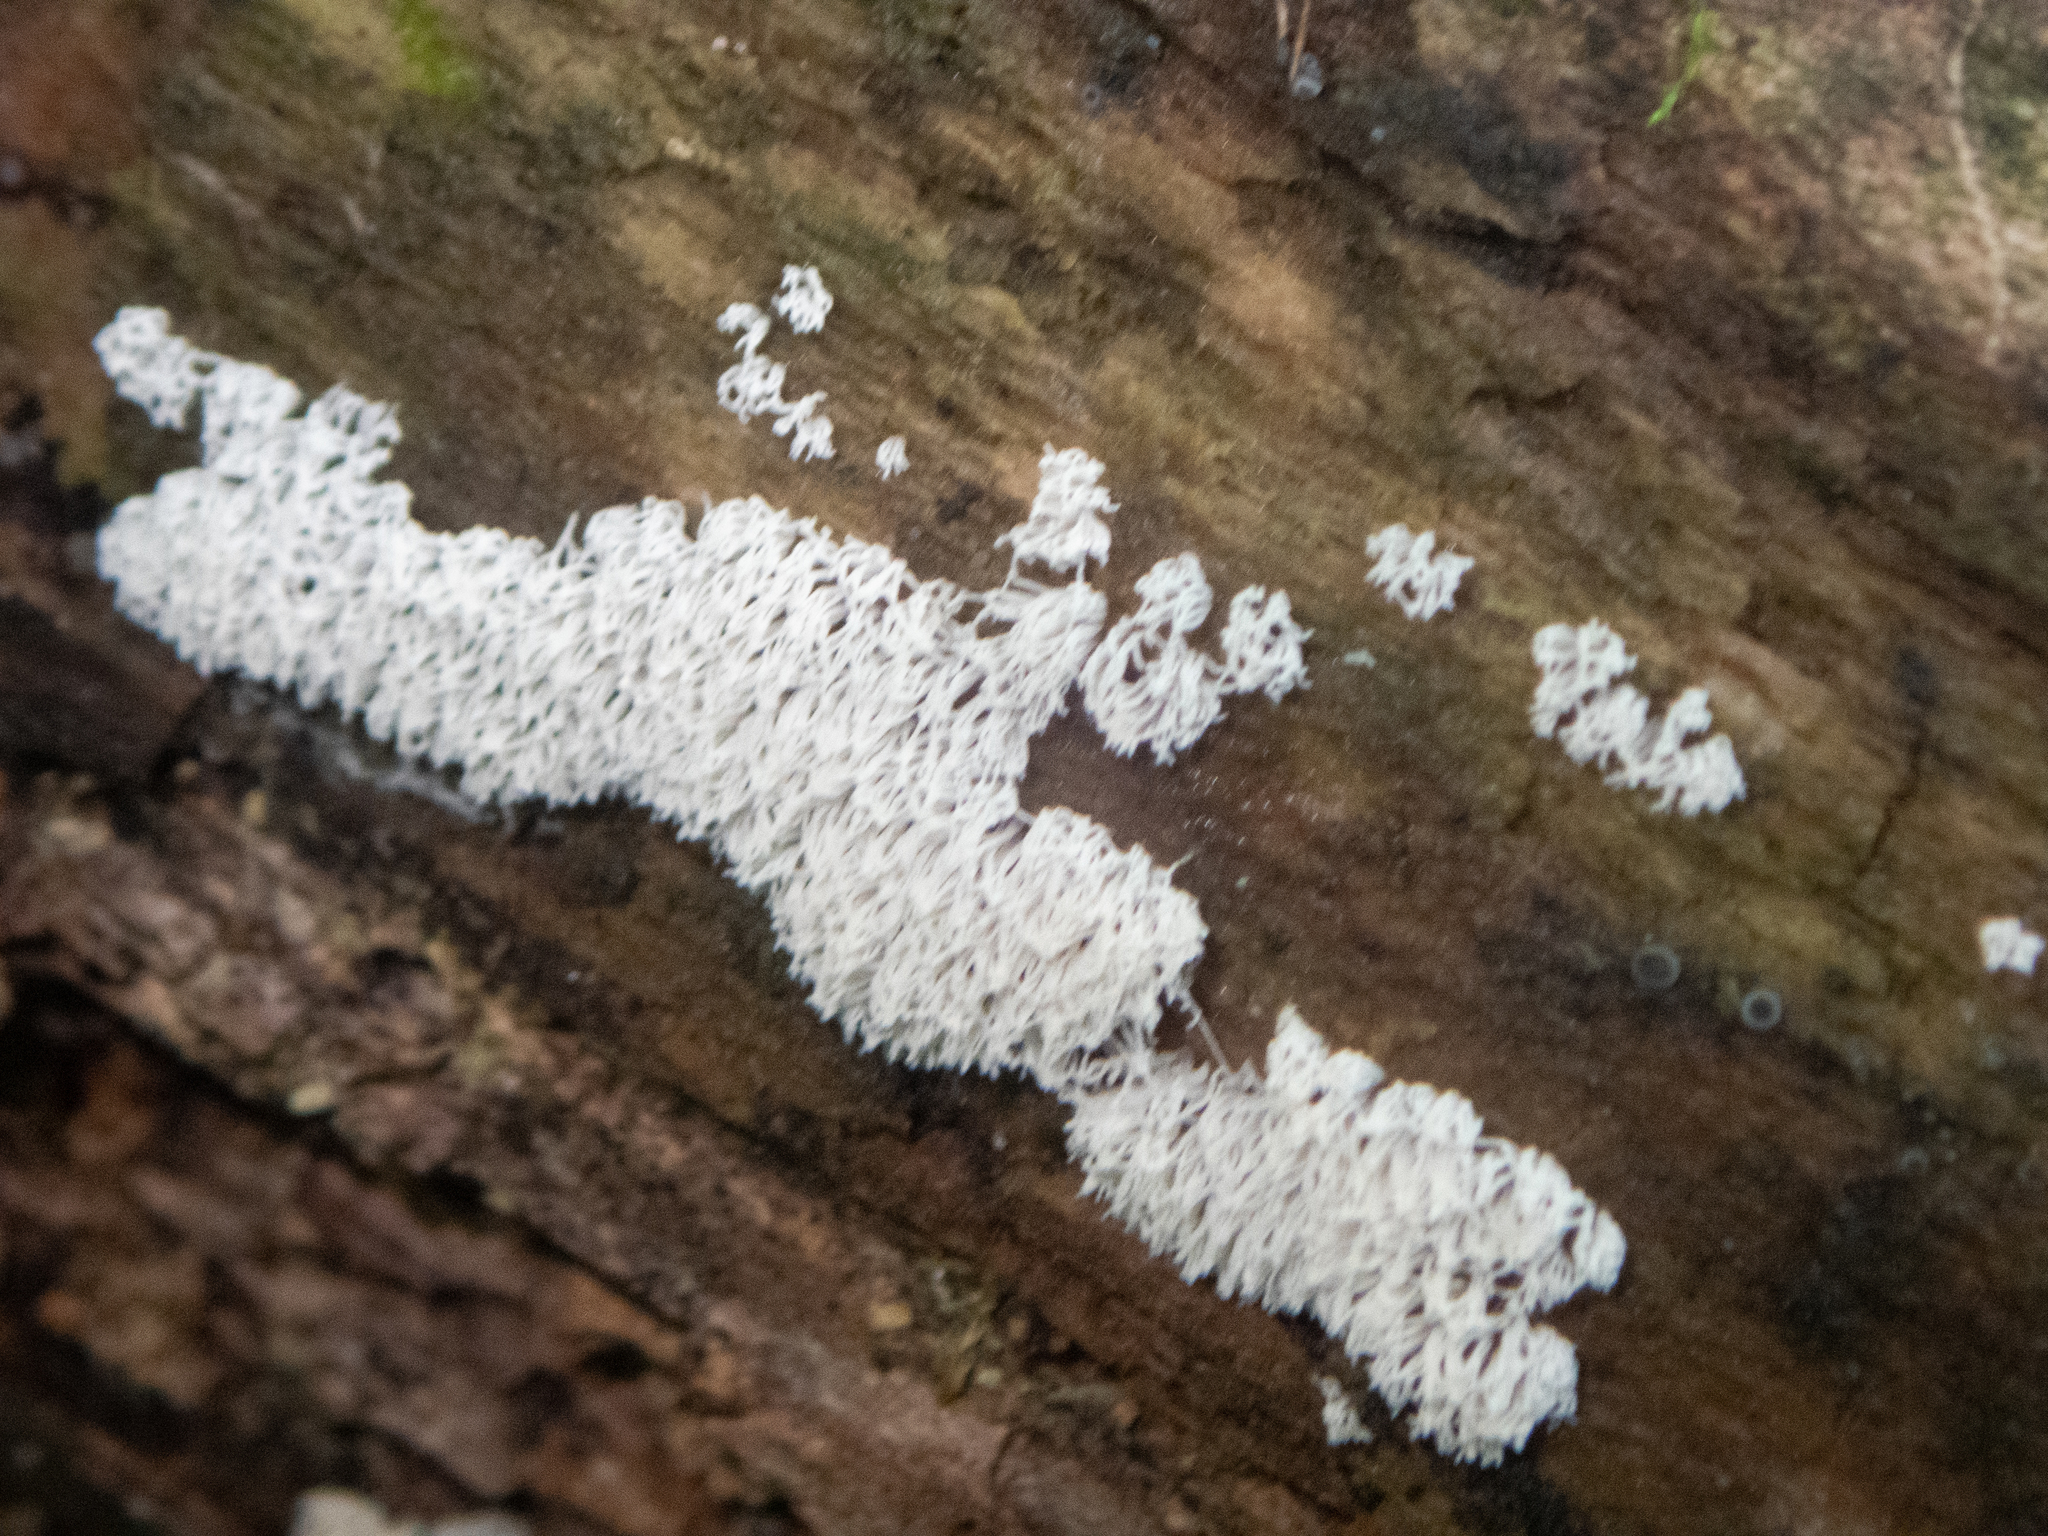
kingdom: Protozoa
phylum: Mycetozoa
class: Protosteliomycetes
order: Ceratiomyxales
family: Ceratiomyxaceae
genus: Ceratiomyxa
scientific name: Ceratiomyxa fruticulosa
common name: Honeycomb coral slime mold
